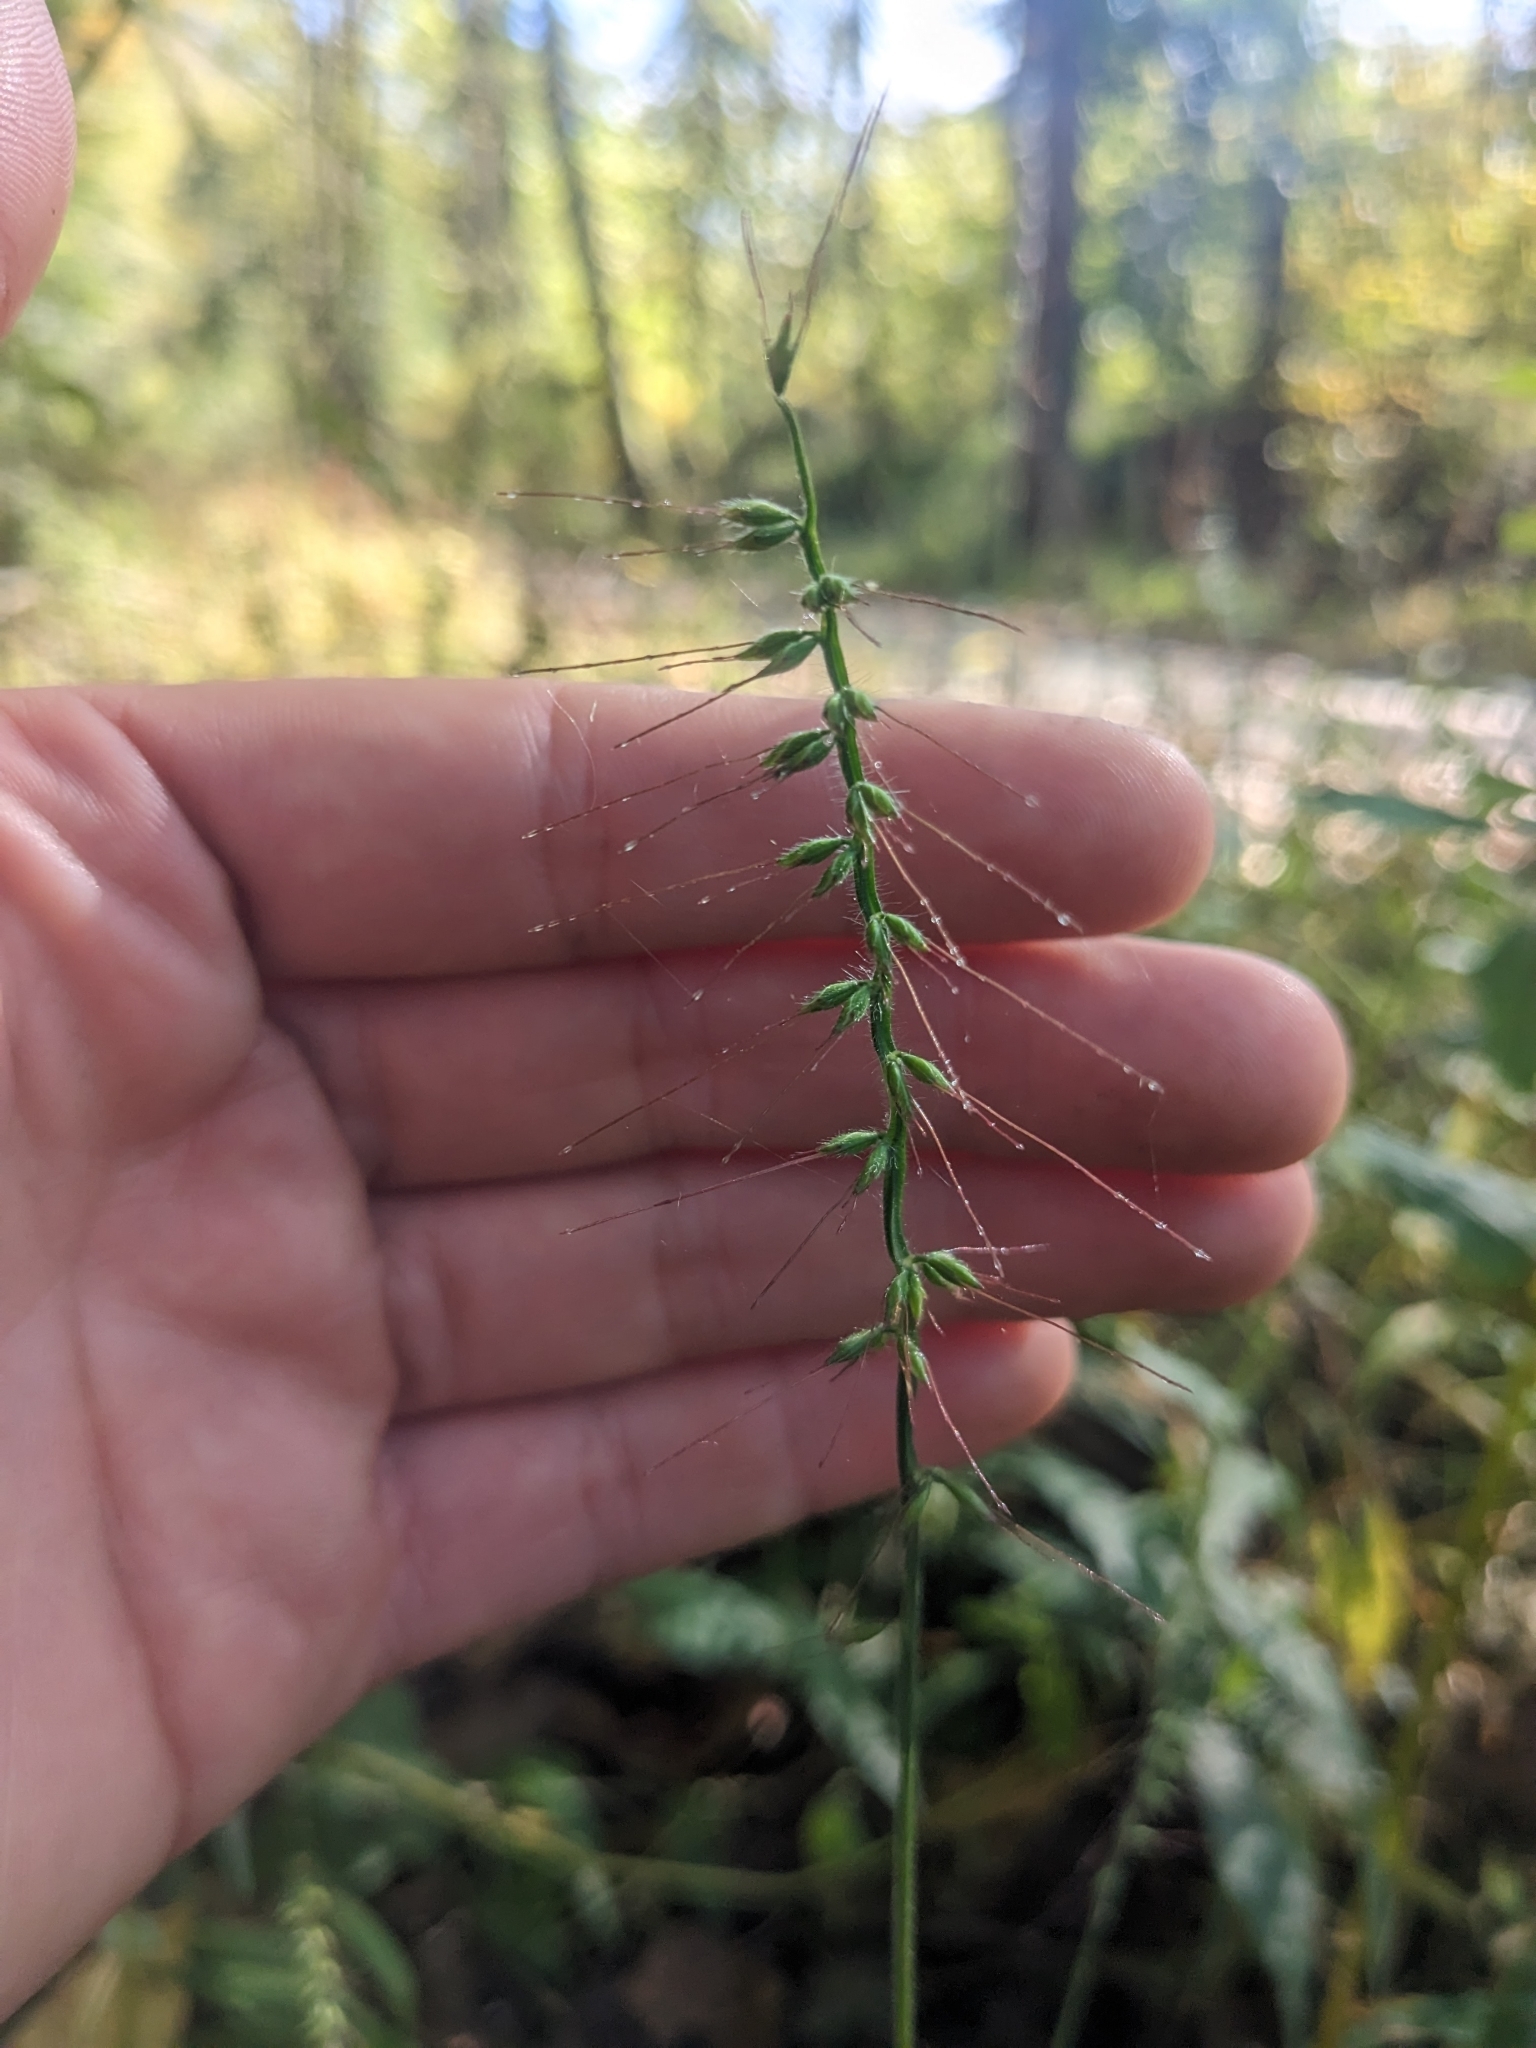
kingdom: Plantae
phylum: Tracheophyta
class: Liliopsida
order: Poales
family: Poaceae
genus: Oplismenus
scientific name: Oplismenus undulatifolius
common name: Wavyleaf basketgrass
